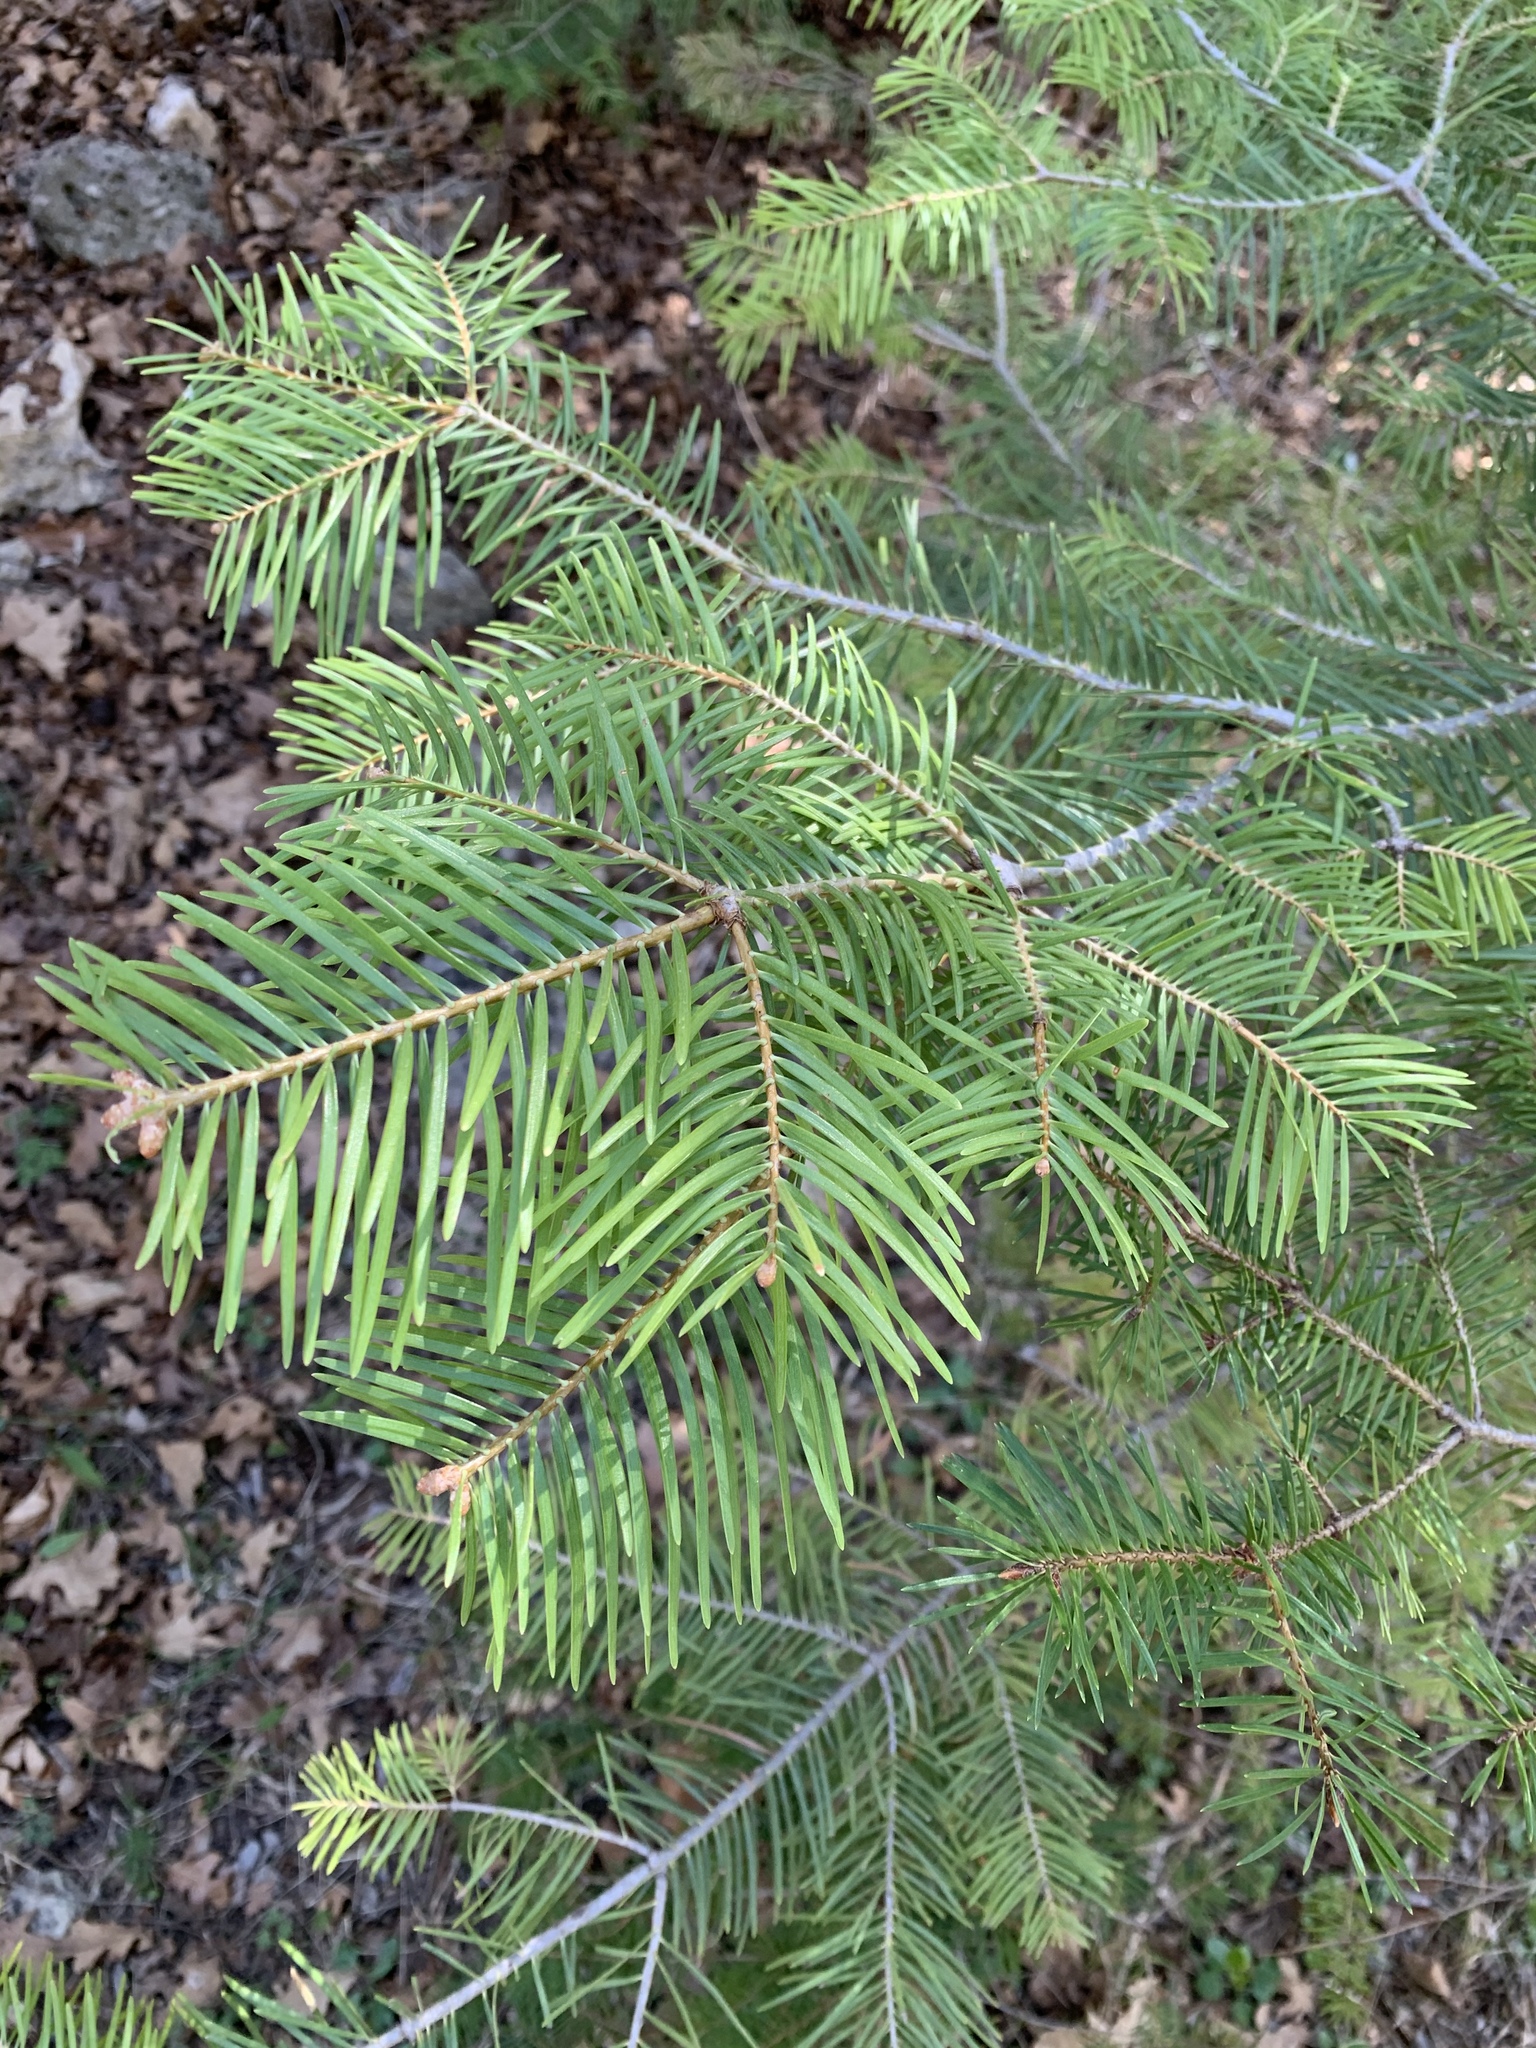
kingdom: Plantae
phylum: Tracheophyta
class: Pinopsida
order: Pinales
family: Pinaceae
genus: Abies
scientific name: Abies concolor
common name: Colorado fir
